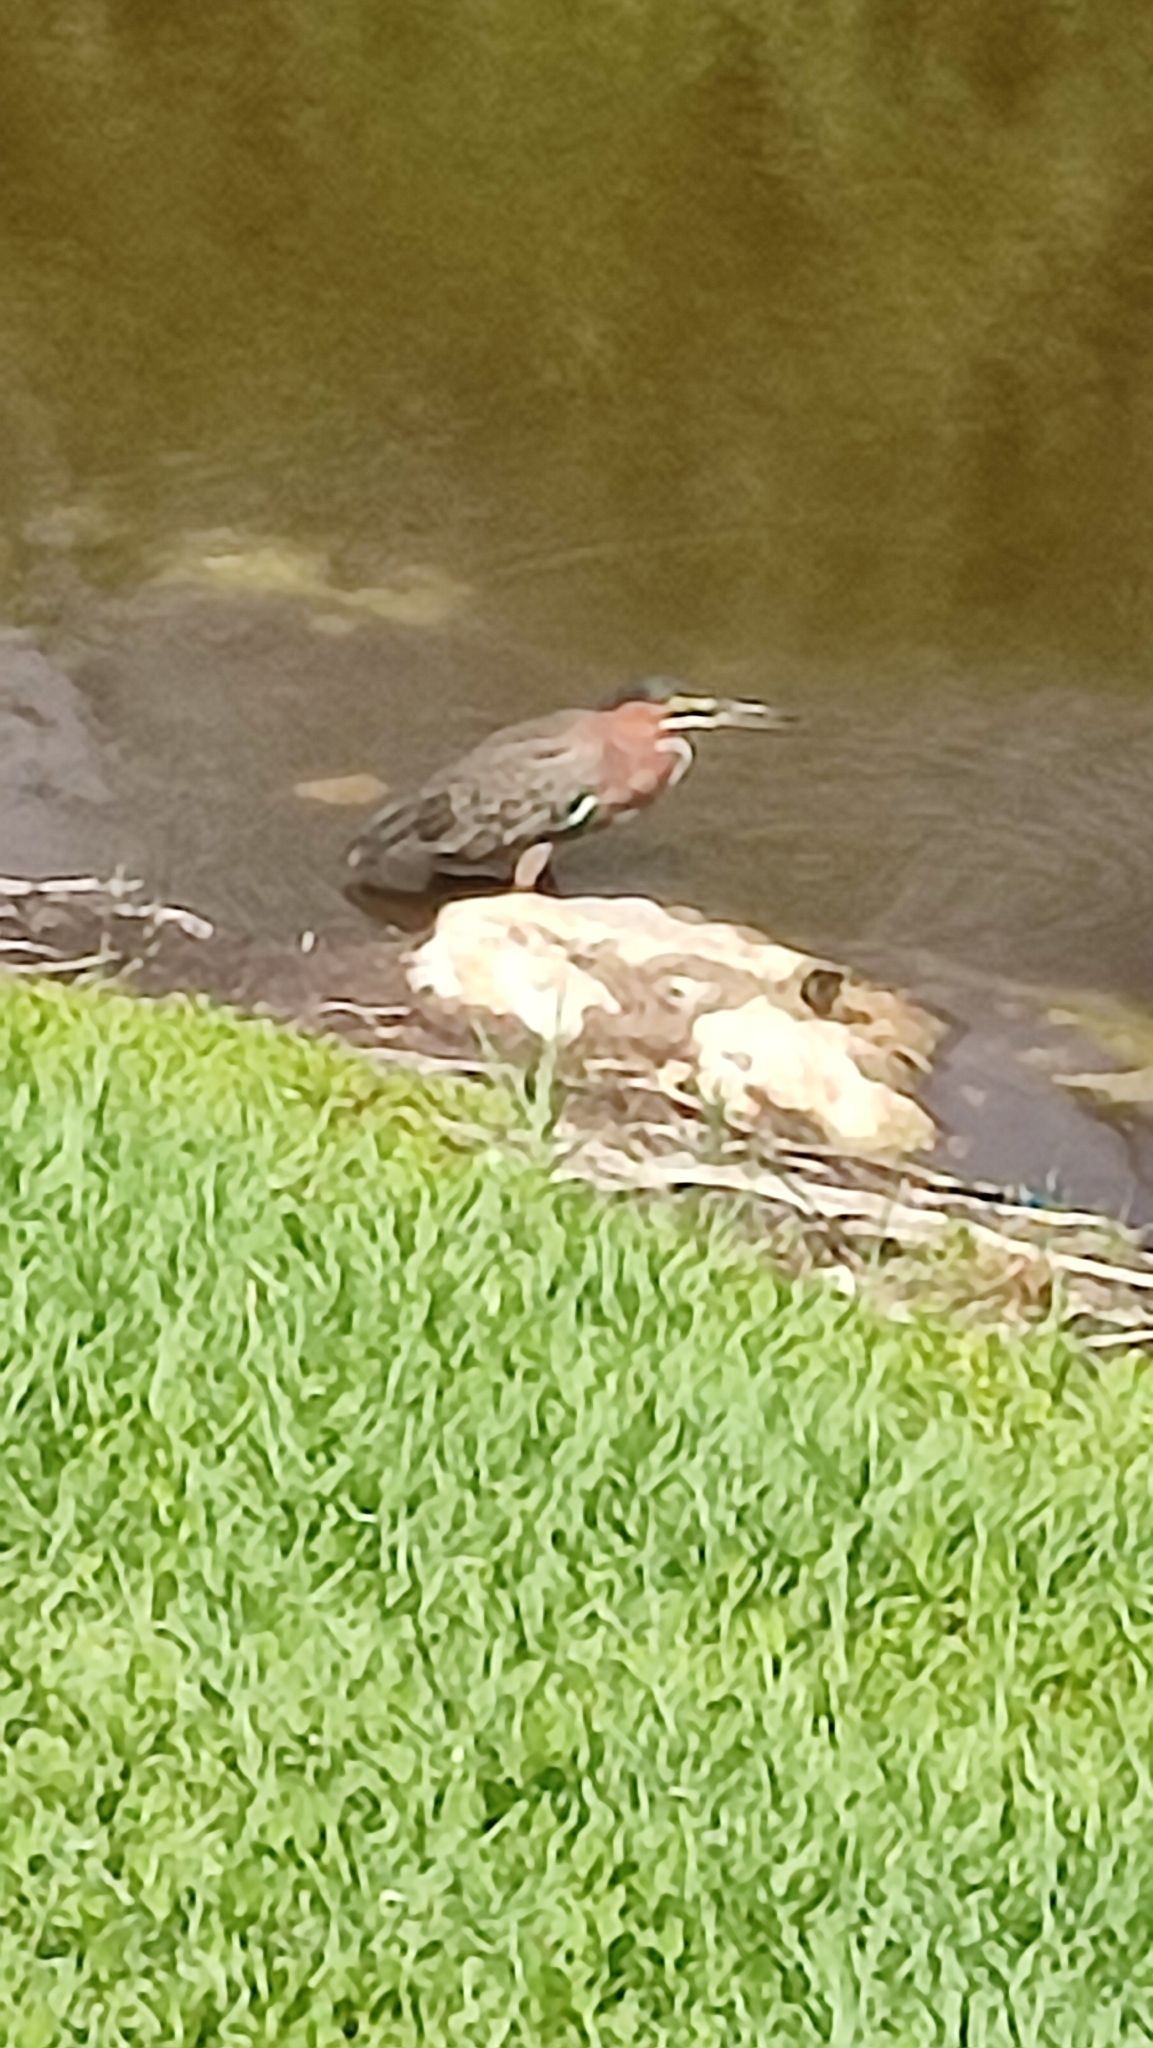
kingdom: Animalia
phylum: Chordata
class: Aves
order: Pelecaniformes
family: Ardeidae
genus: Butorides
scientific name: Butorides virescens
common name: Green heron
